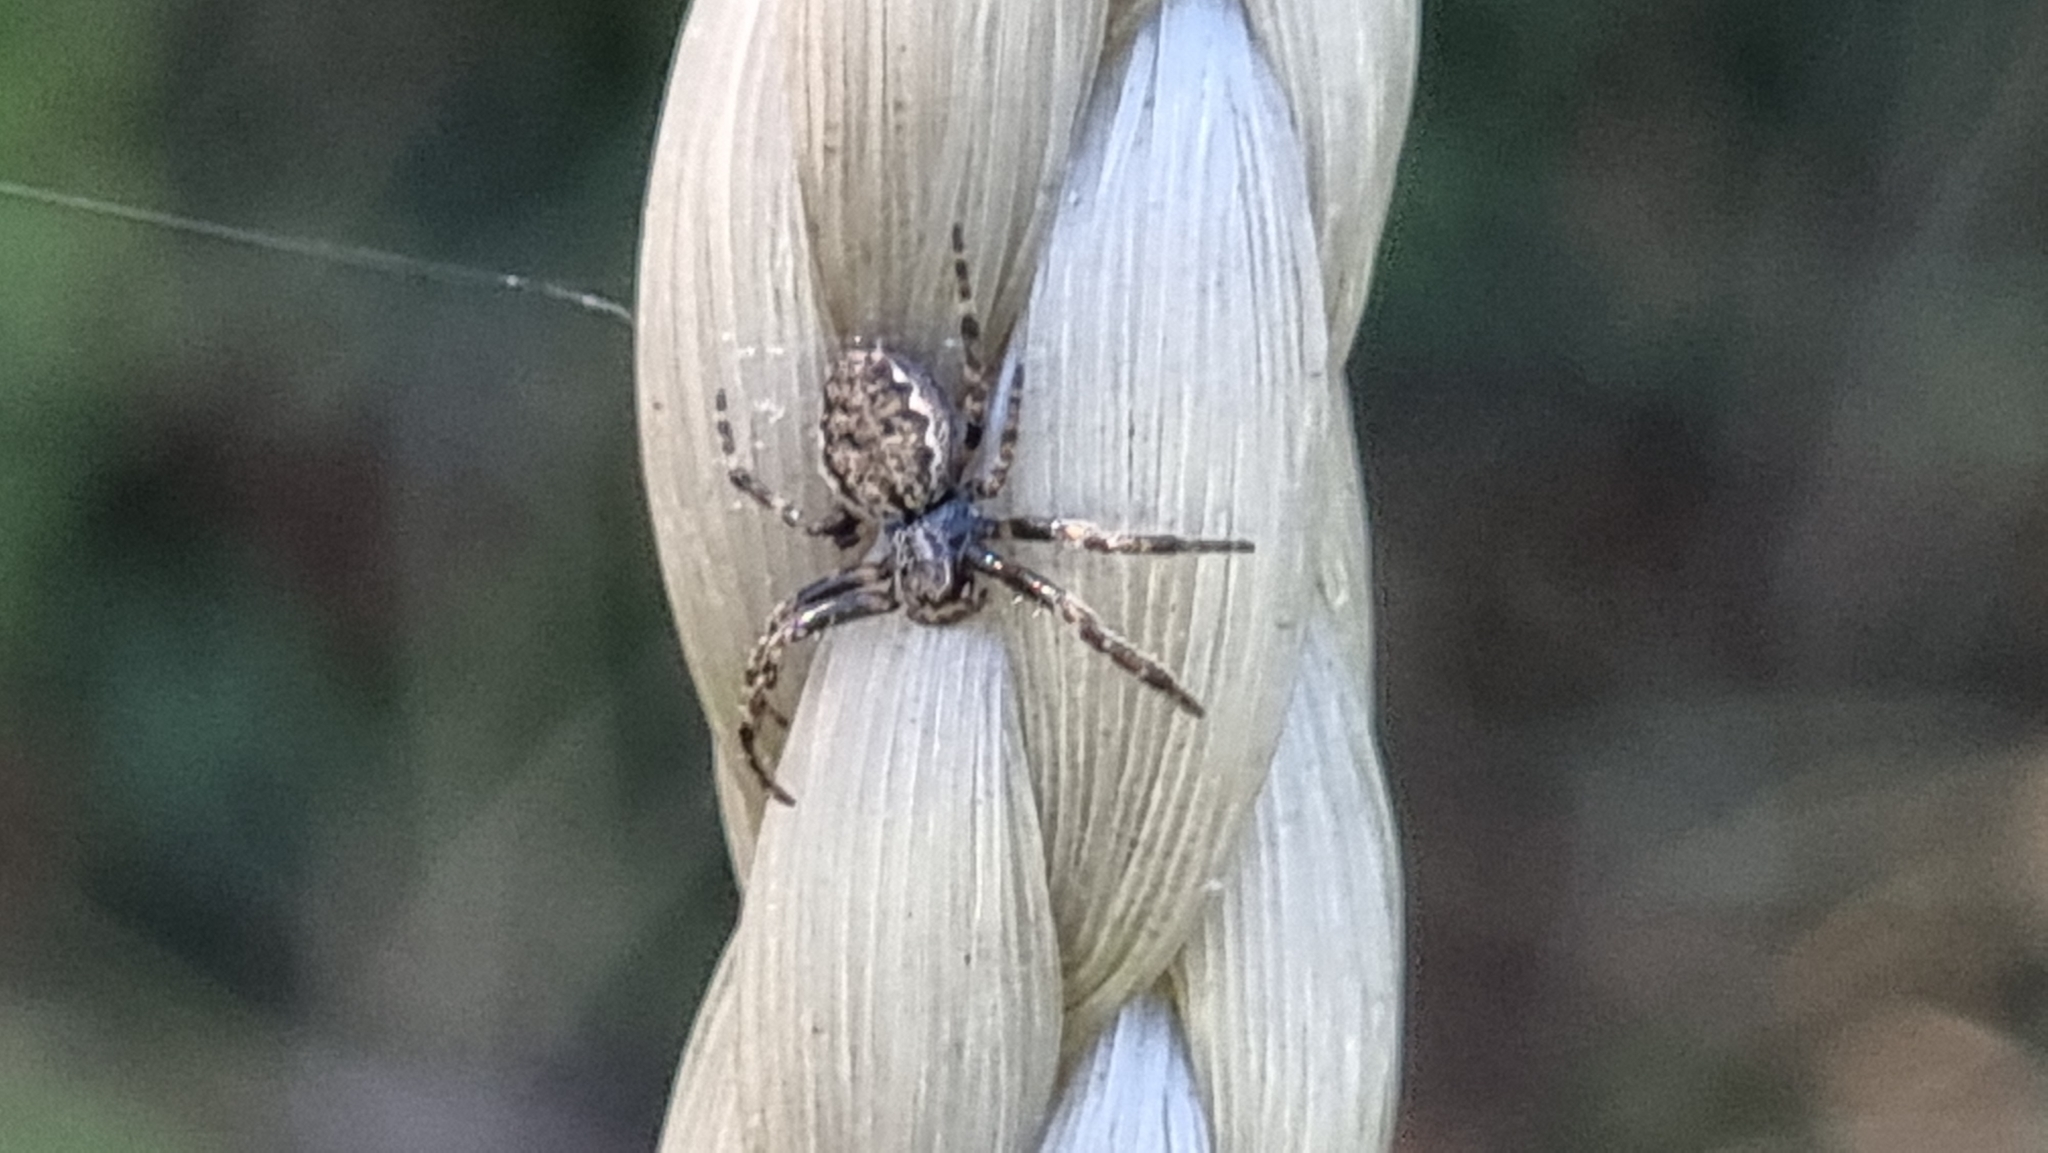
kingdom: Animalia
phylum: Arthropoda
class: Arachnida
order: Araneae
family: Araneidae
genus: Nuctenea
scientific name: Nuctenea umbratica
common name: Toad spider
